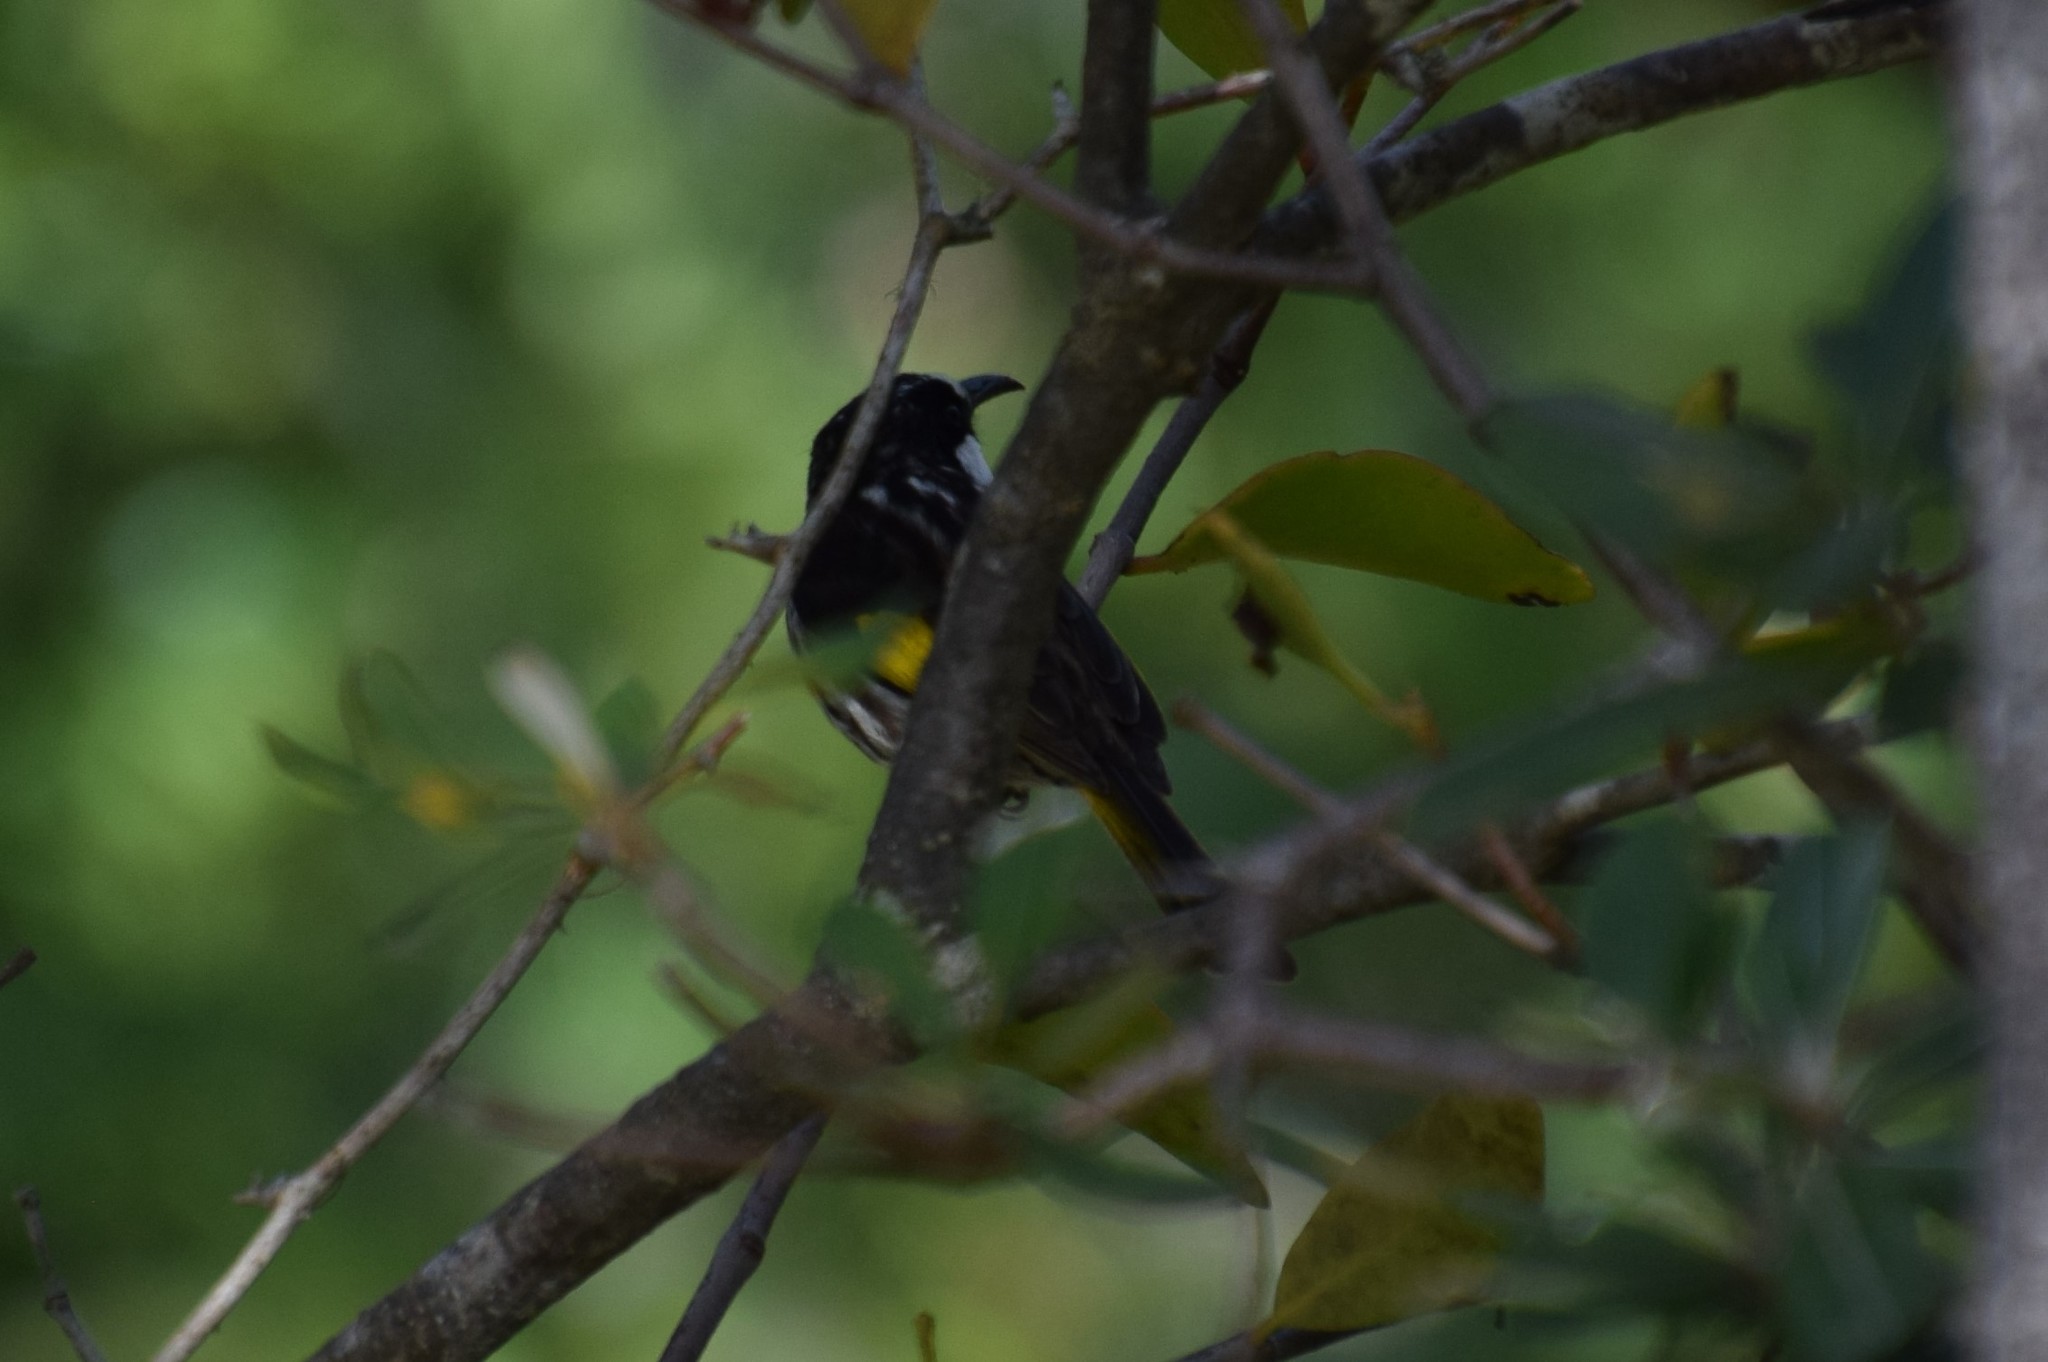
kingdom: Animalia
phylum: Chordata
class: Aves
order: Passeriformes
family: Meliphagidae
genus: Phylidonyris
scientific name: Phylidonyris niger
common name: White-cheeked honeyeater
